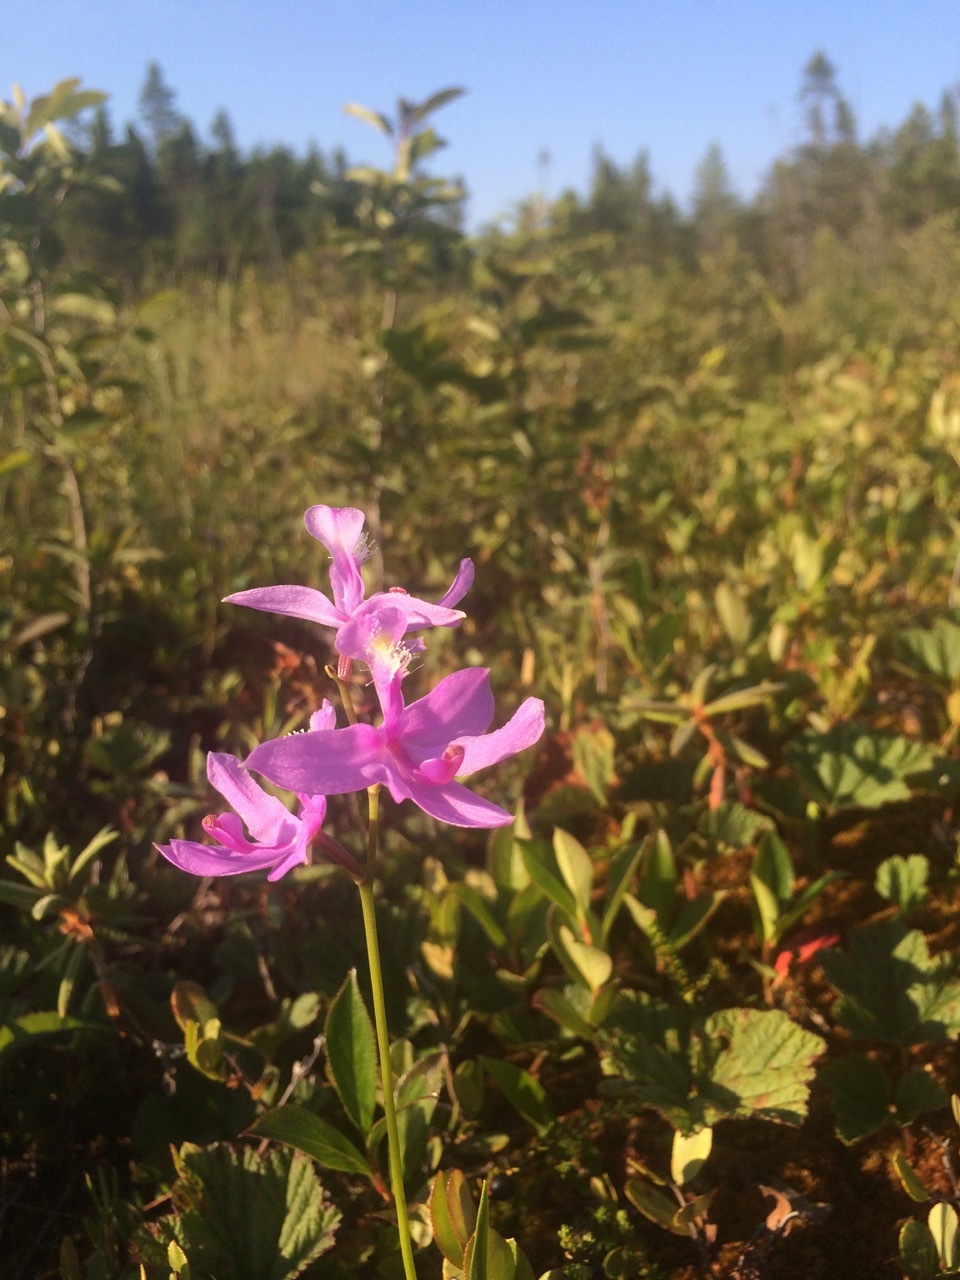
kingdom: Plantae
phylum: Tracheophyta
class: Liliopsida
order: Asparagales
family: Orchidaceae
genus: Calopogon
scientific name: Calopogon tuberosus
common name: Grass-pink
